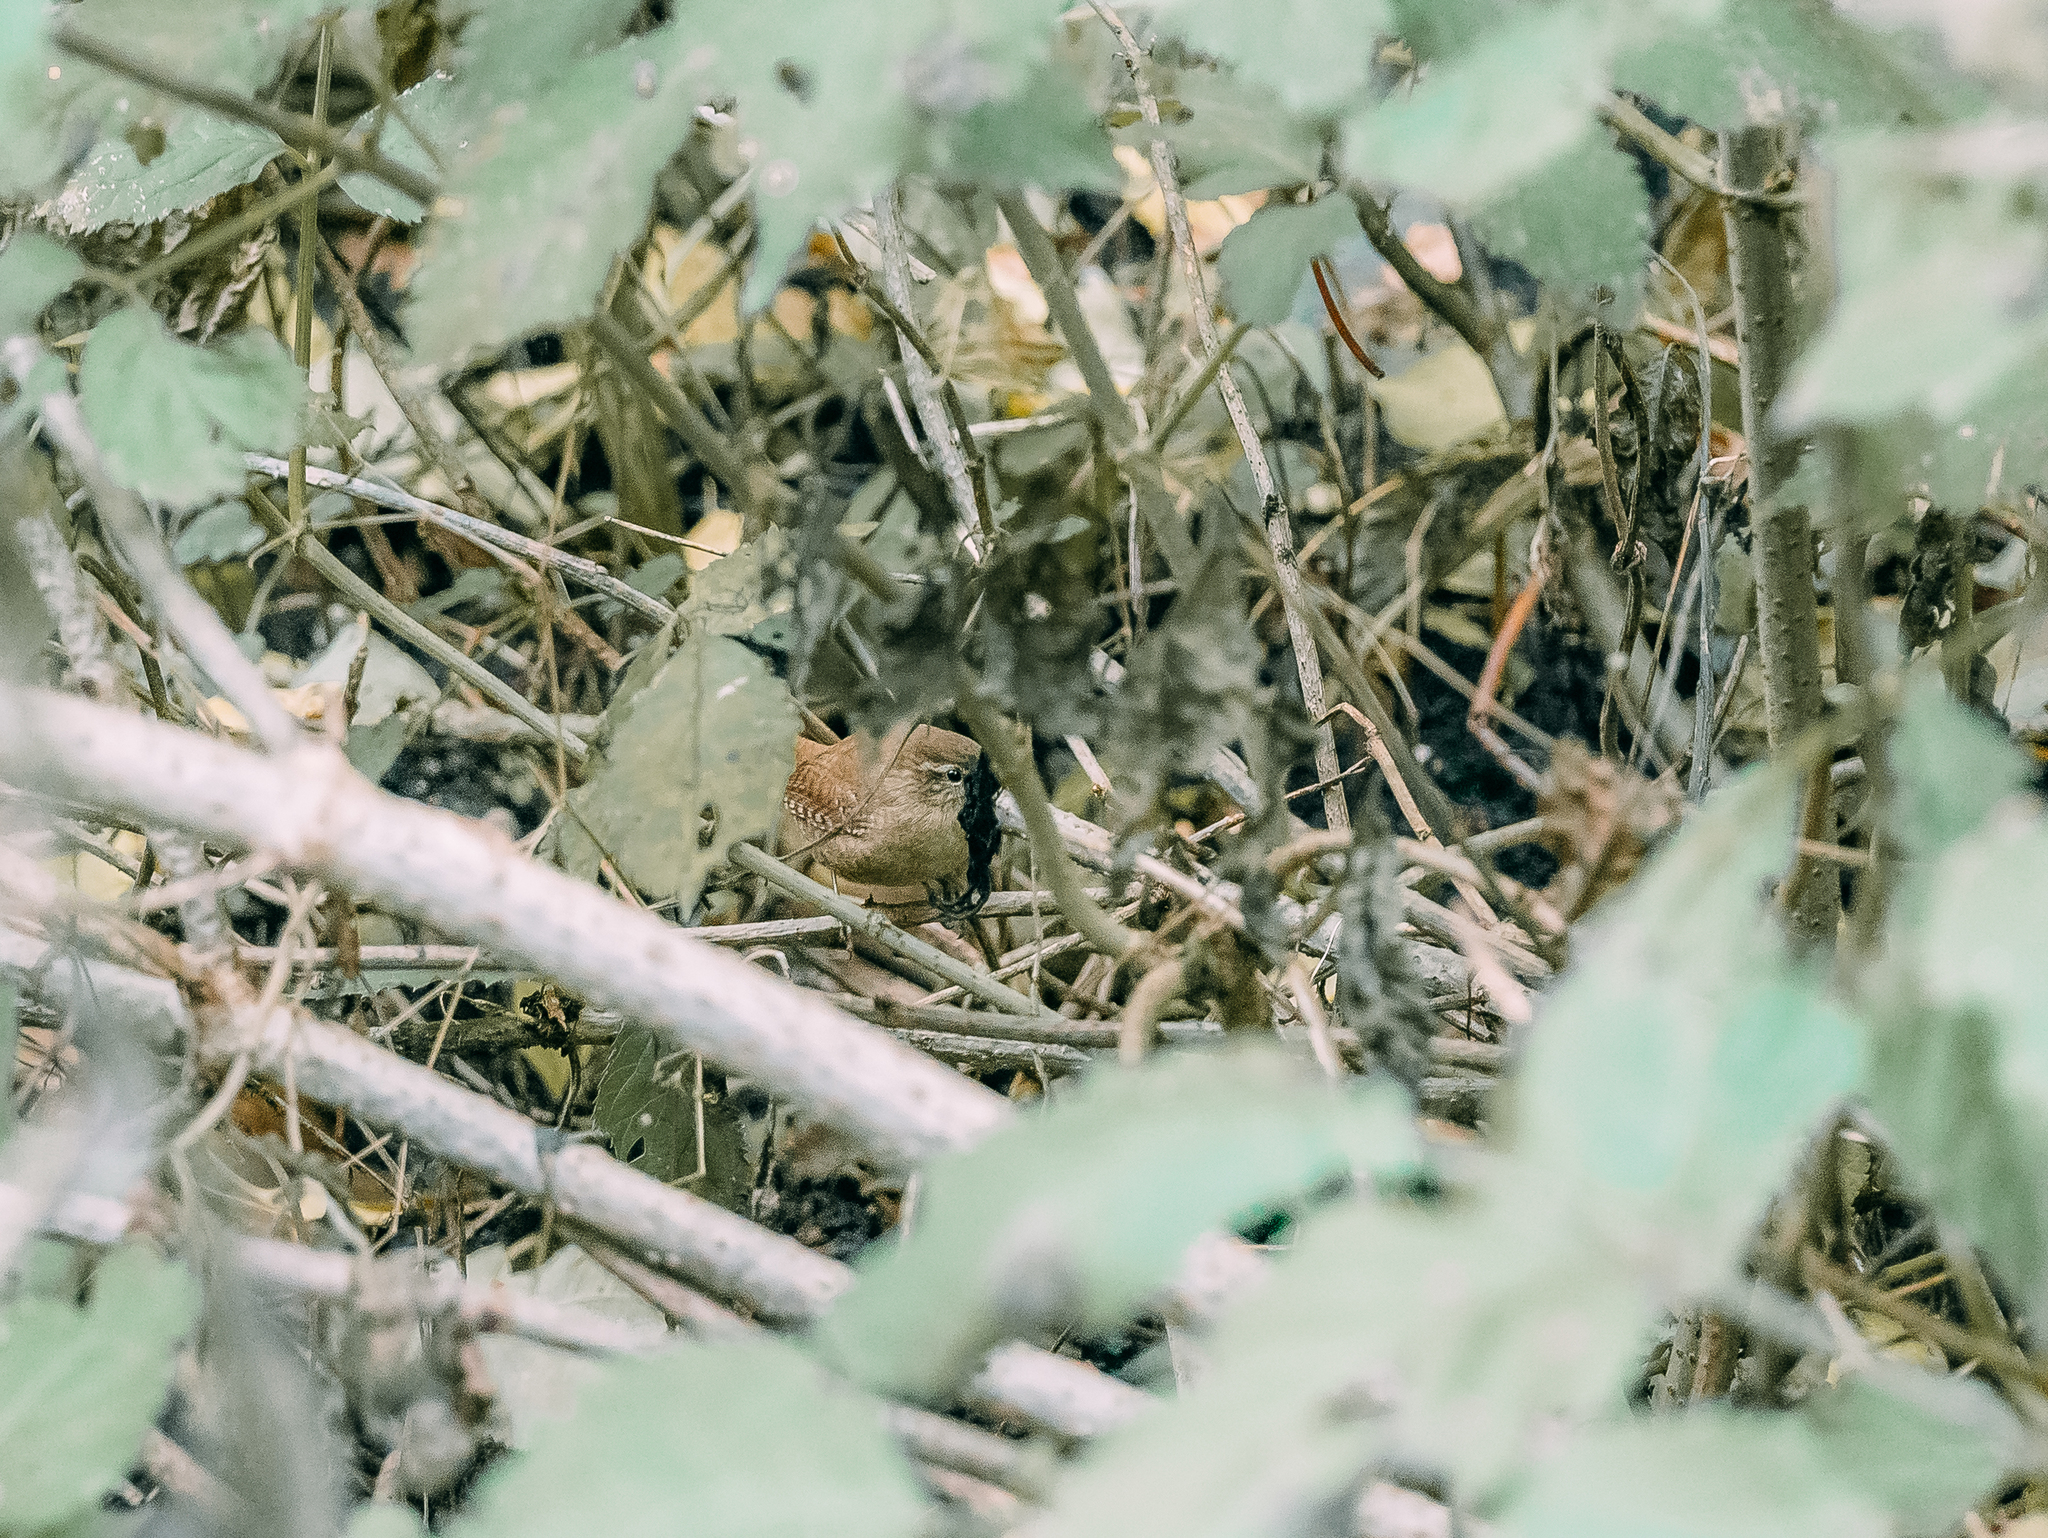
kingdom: Animalia
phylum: Chordata
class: Aves
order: Passeriformes
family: Troglodytidae
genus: Troglodytes
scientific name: Troglodytes troglodytes
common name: Eurasian wren
